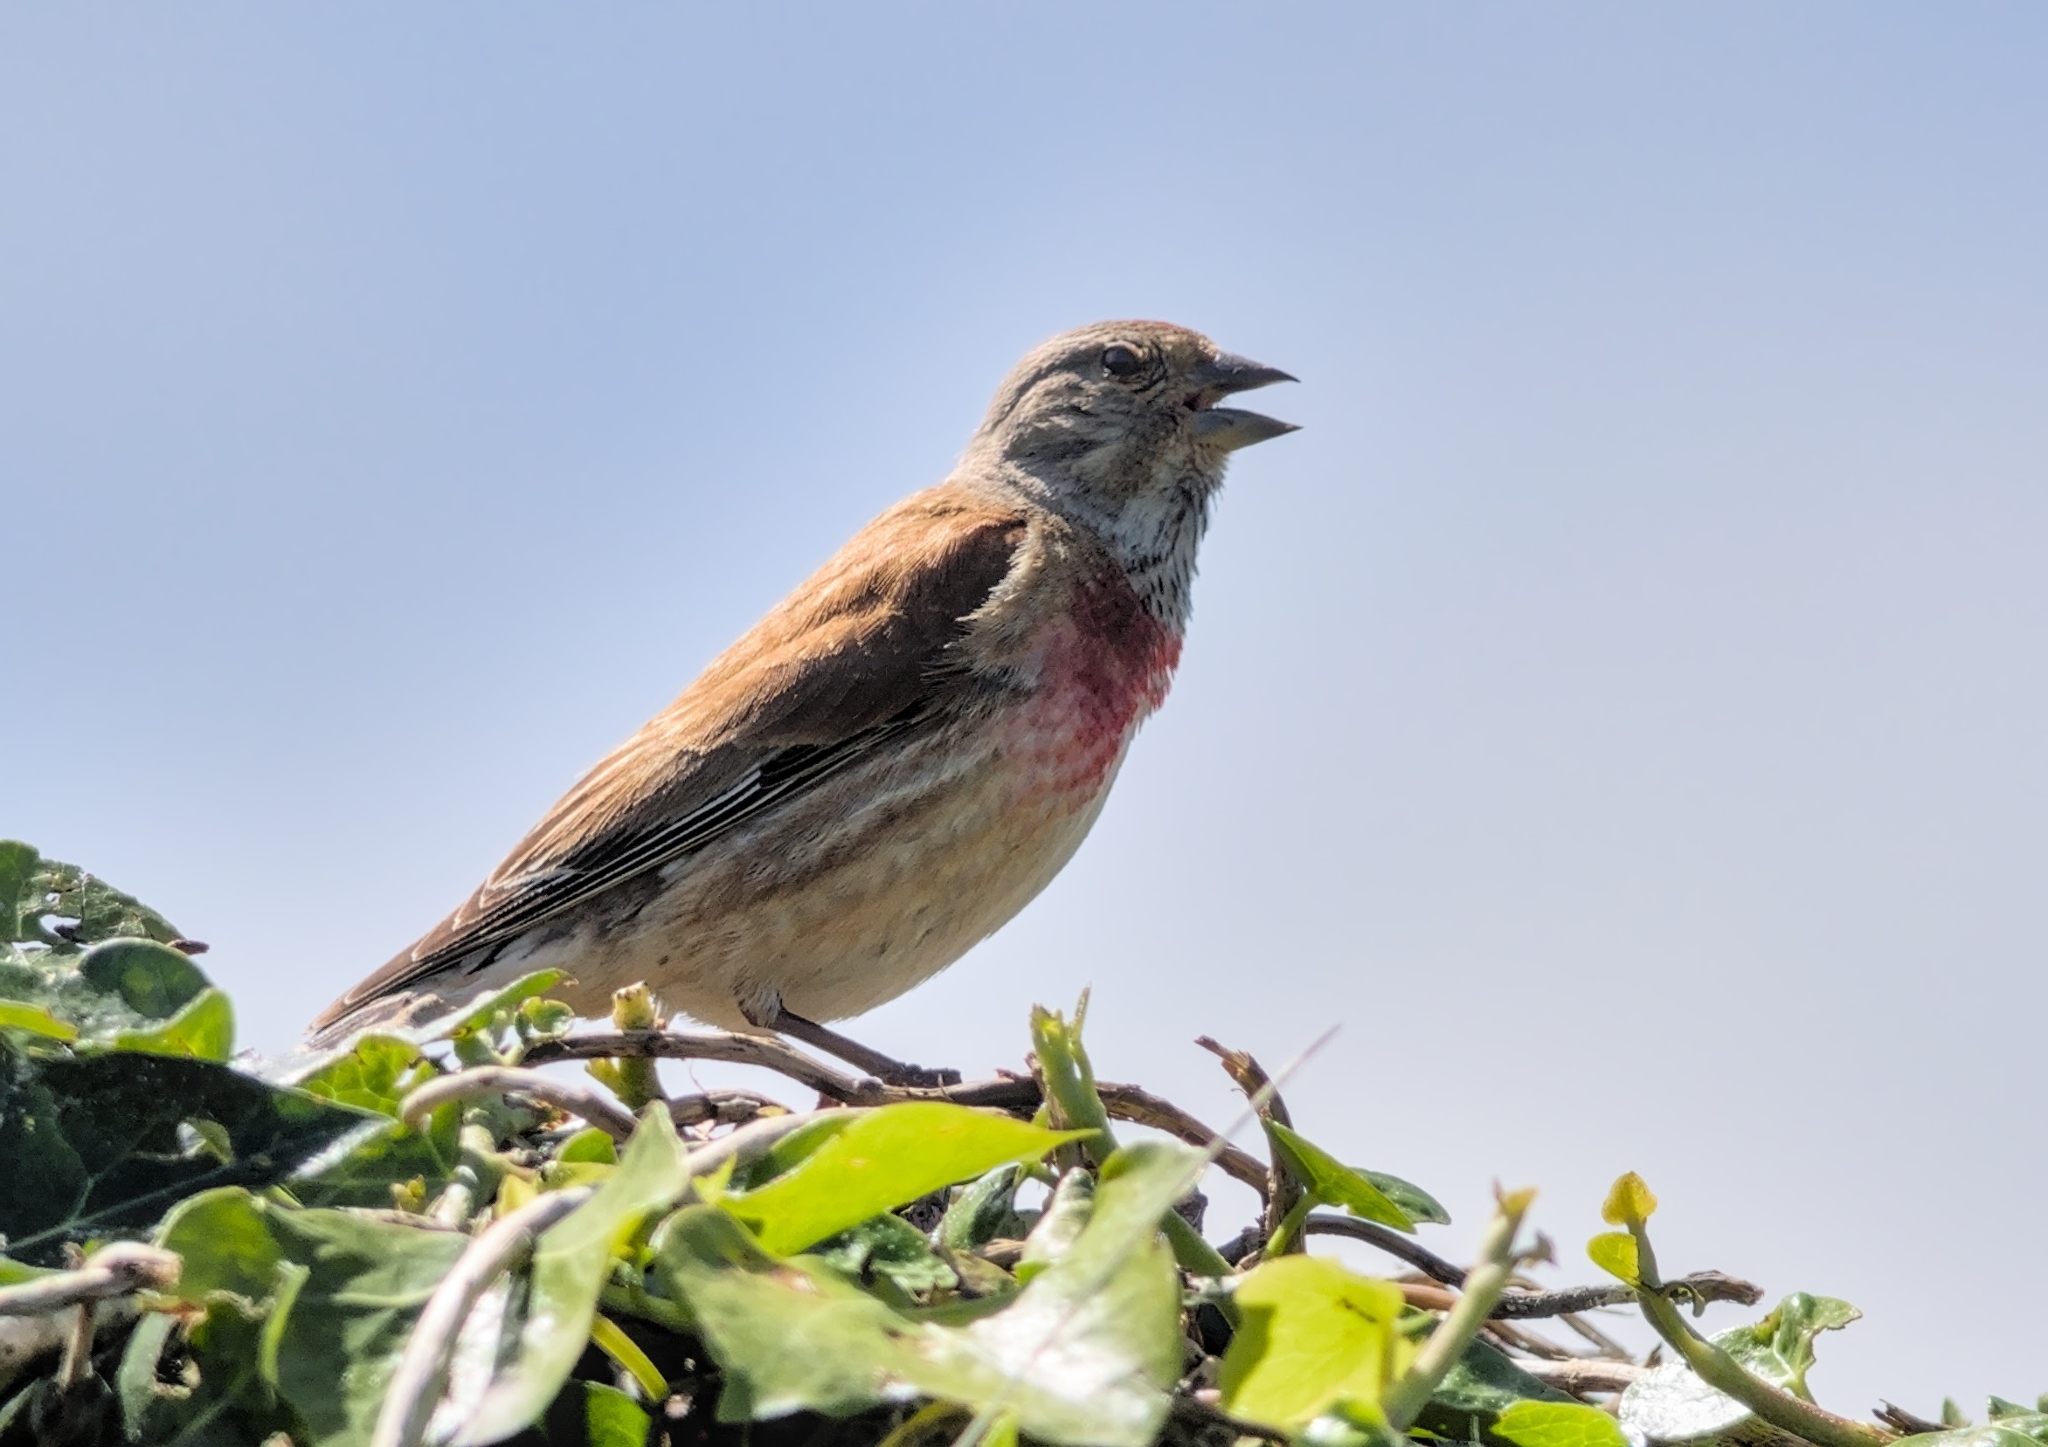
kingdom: Animalia
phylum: Chordata
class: Aves
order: Passeriformes
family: Fringillidae
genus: Linaria
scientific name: Linaria cannabina
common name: Common linnet
